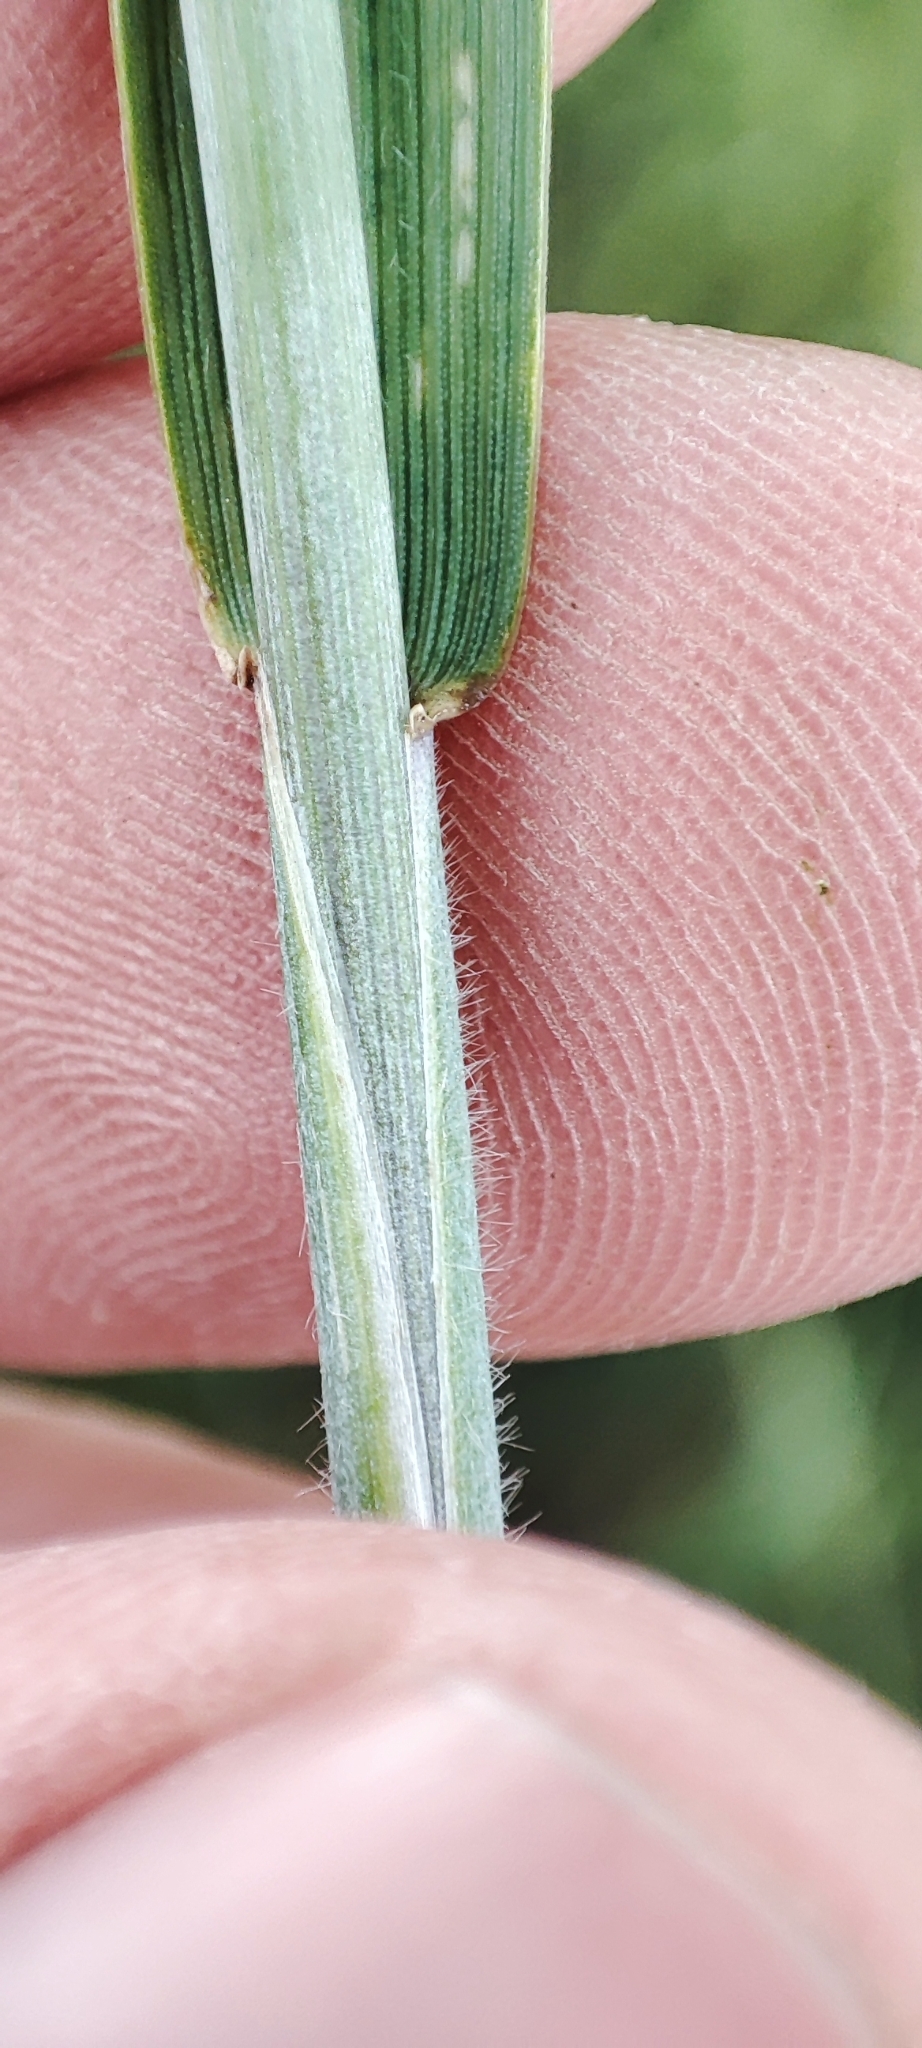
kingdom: Plantae
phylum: Tracheophyta
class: Liliopsida
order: Poales
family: Poaceae
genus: Elymus
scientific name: Elymus repens
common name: Quackgrass
